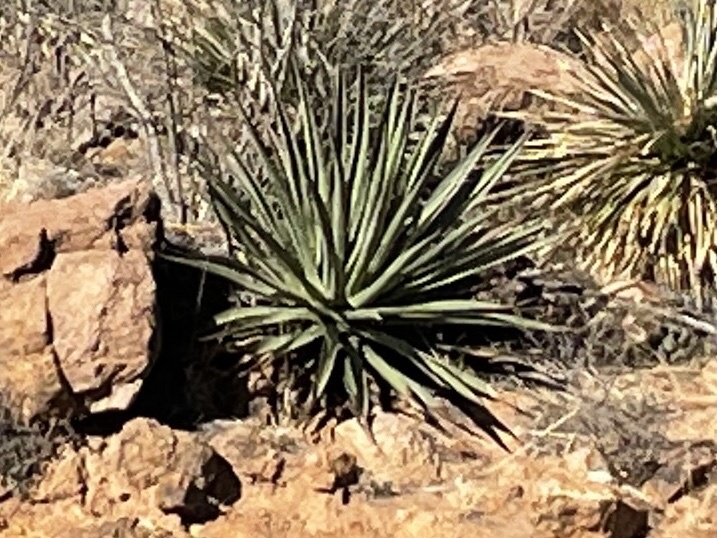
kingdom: Plantae
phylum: Tracheophyta
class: Liliopsida
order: Asparagales
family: Asparagaceae
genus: Agave
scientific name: Agave palmeri
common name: Palmer agave
